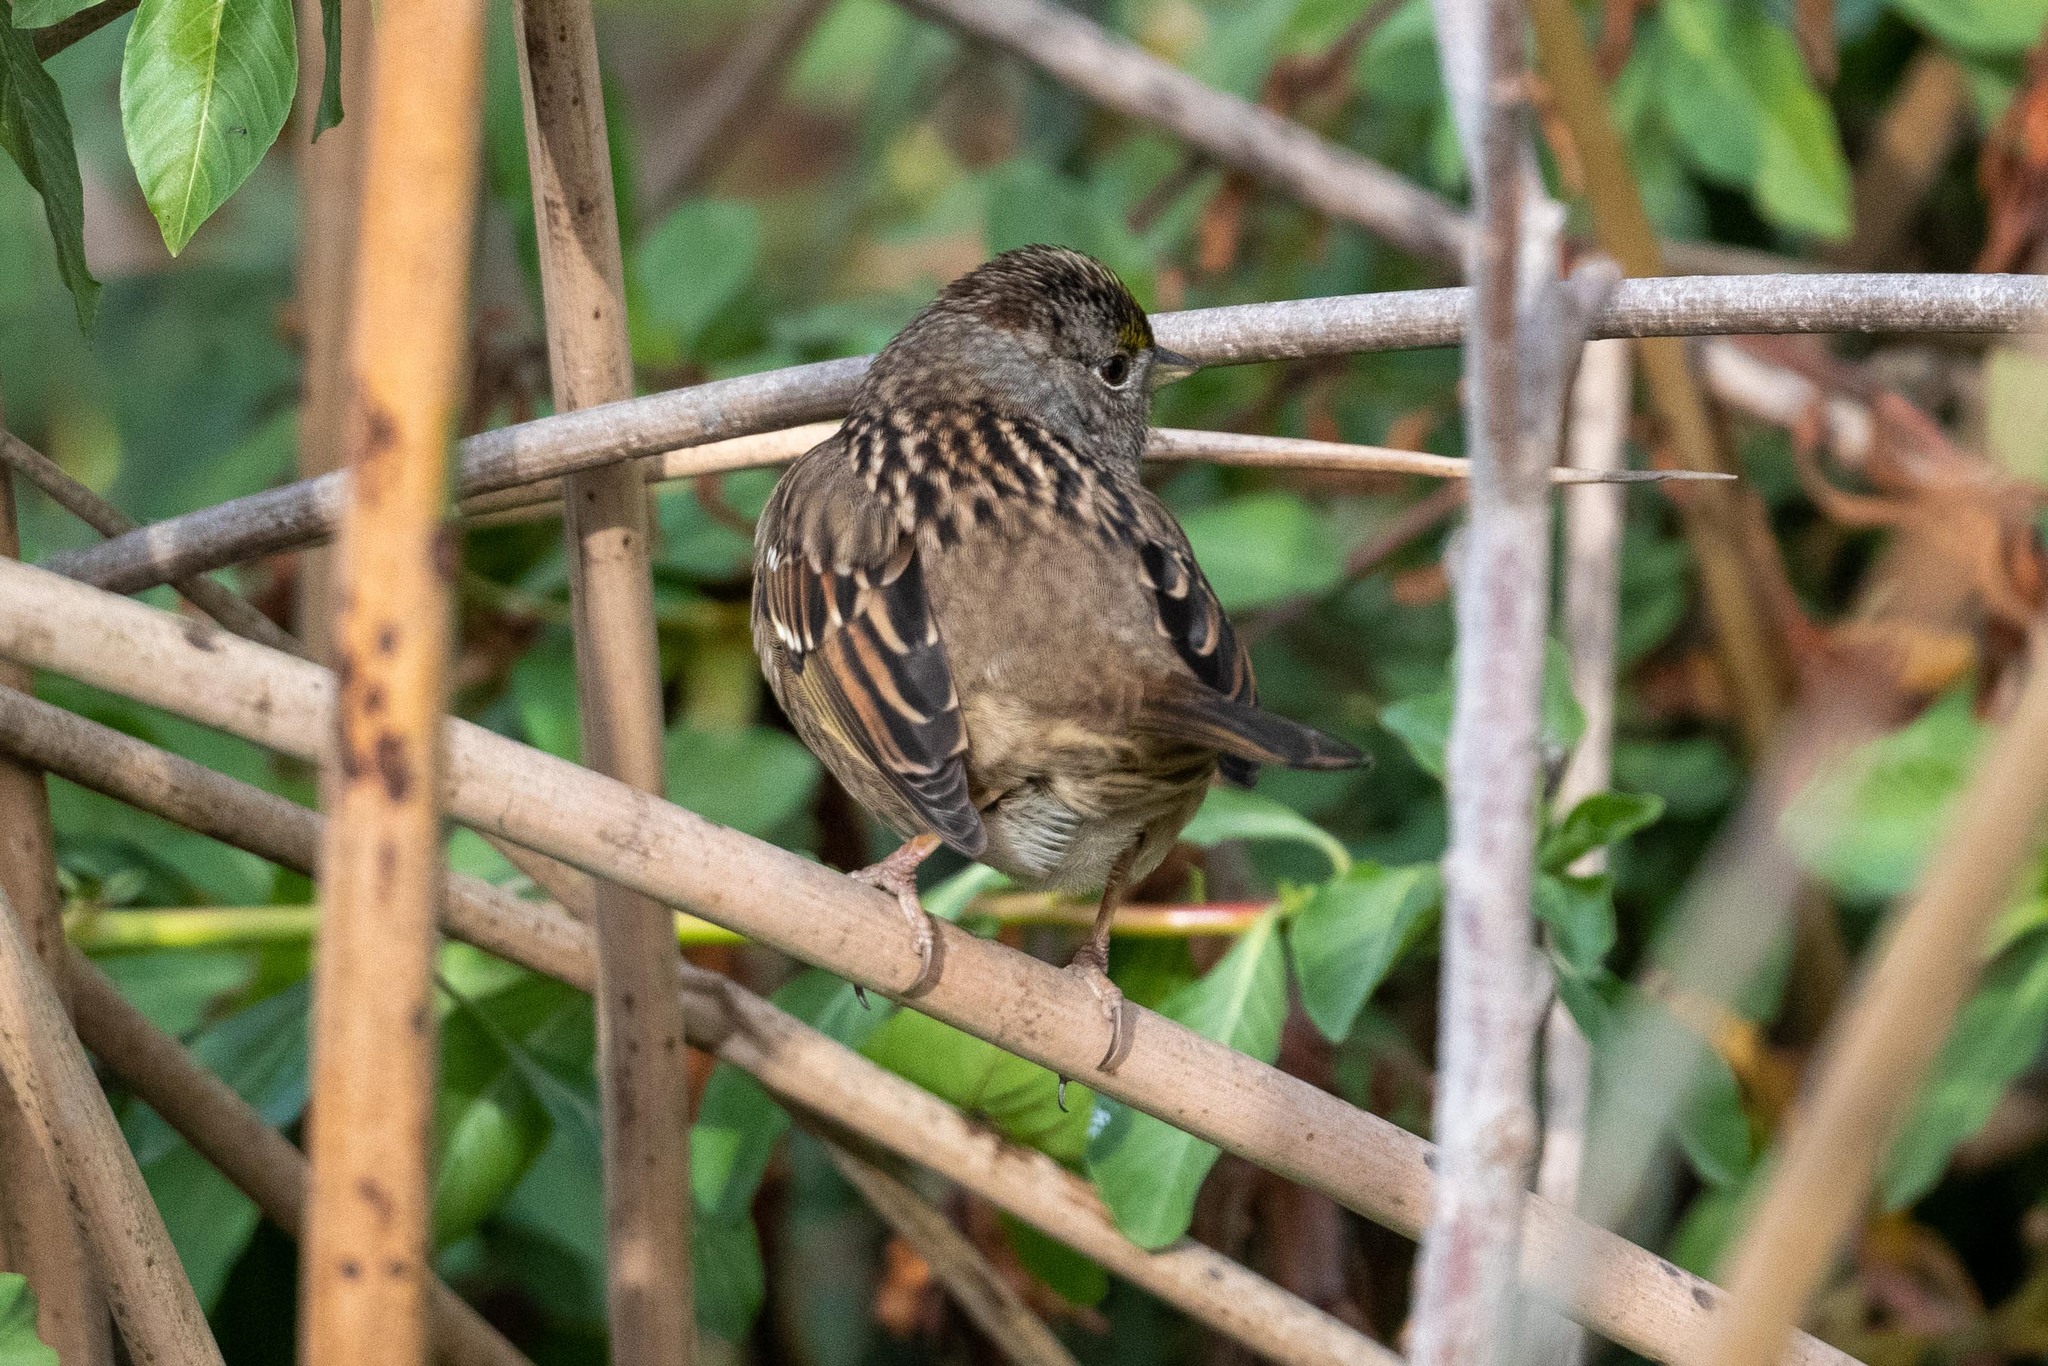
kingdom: Animalia
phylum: Chordata
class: Aves
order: Passeriformes
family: Passerellidae
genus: Zonotrichia
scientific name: Zonotrichia atricapilla
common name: Golden-crowned sparrow
